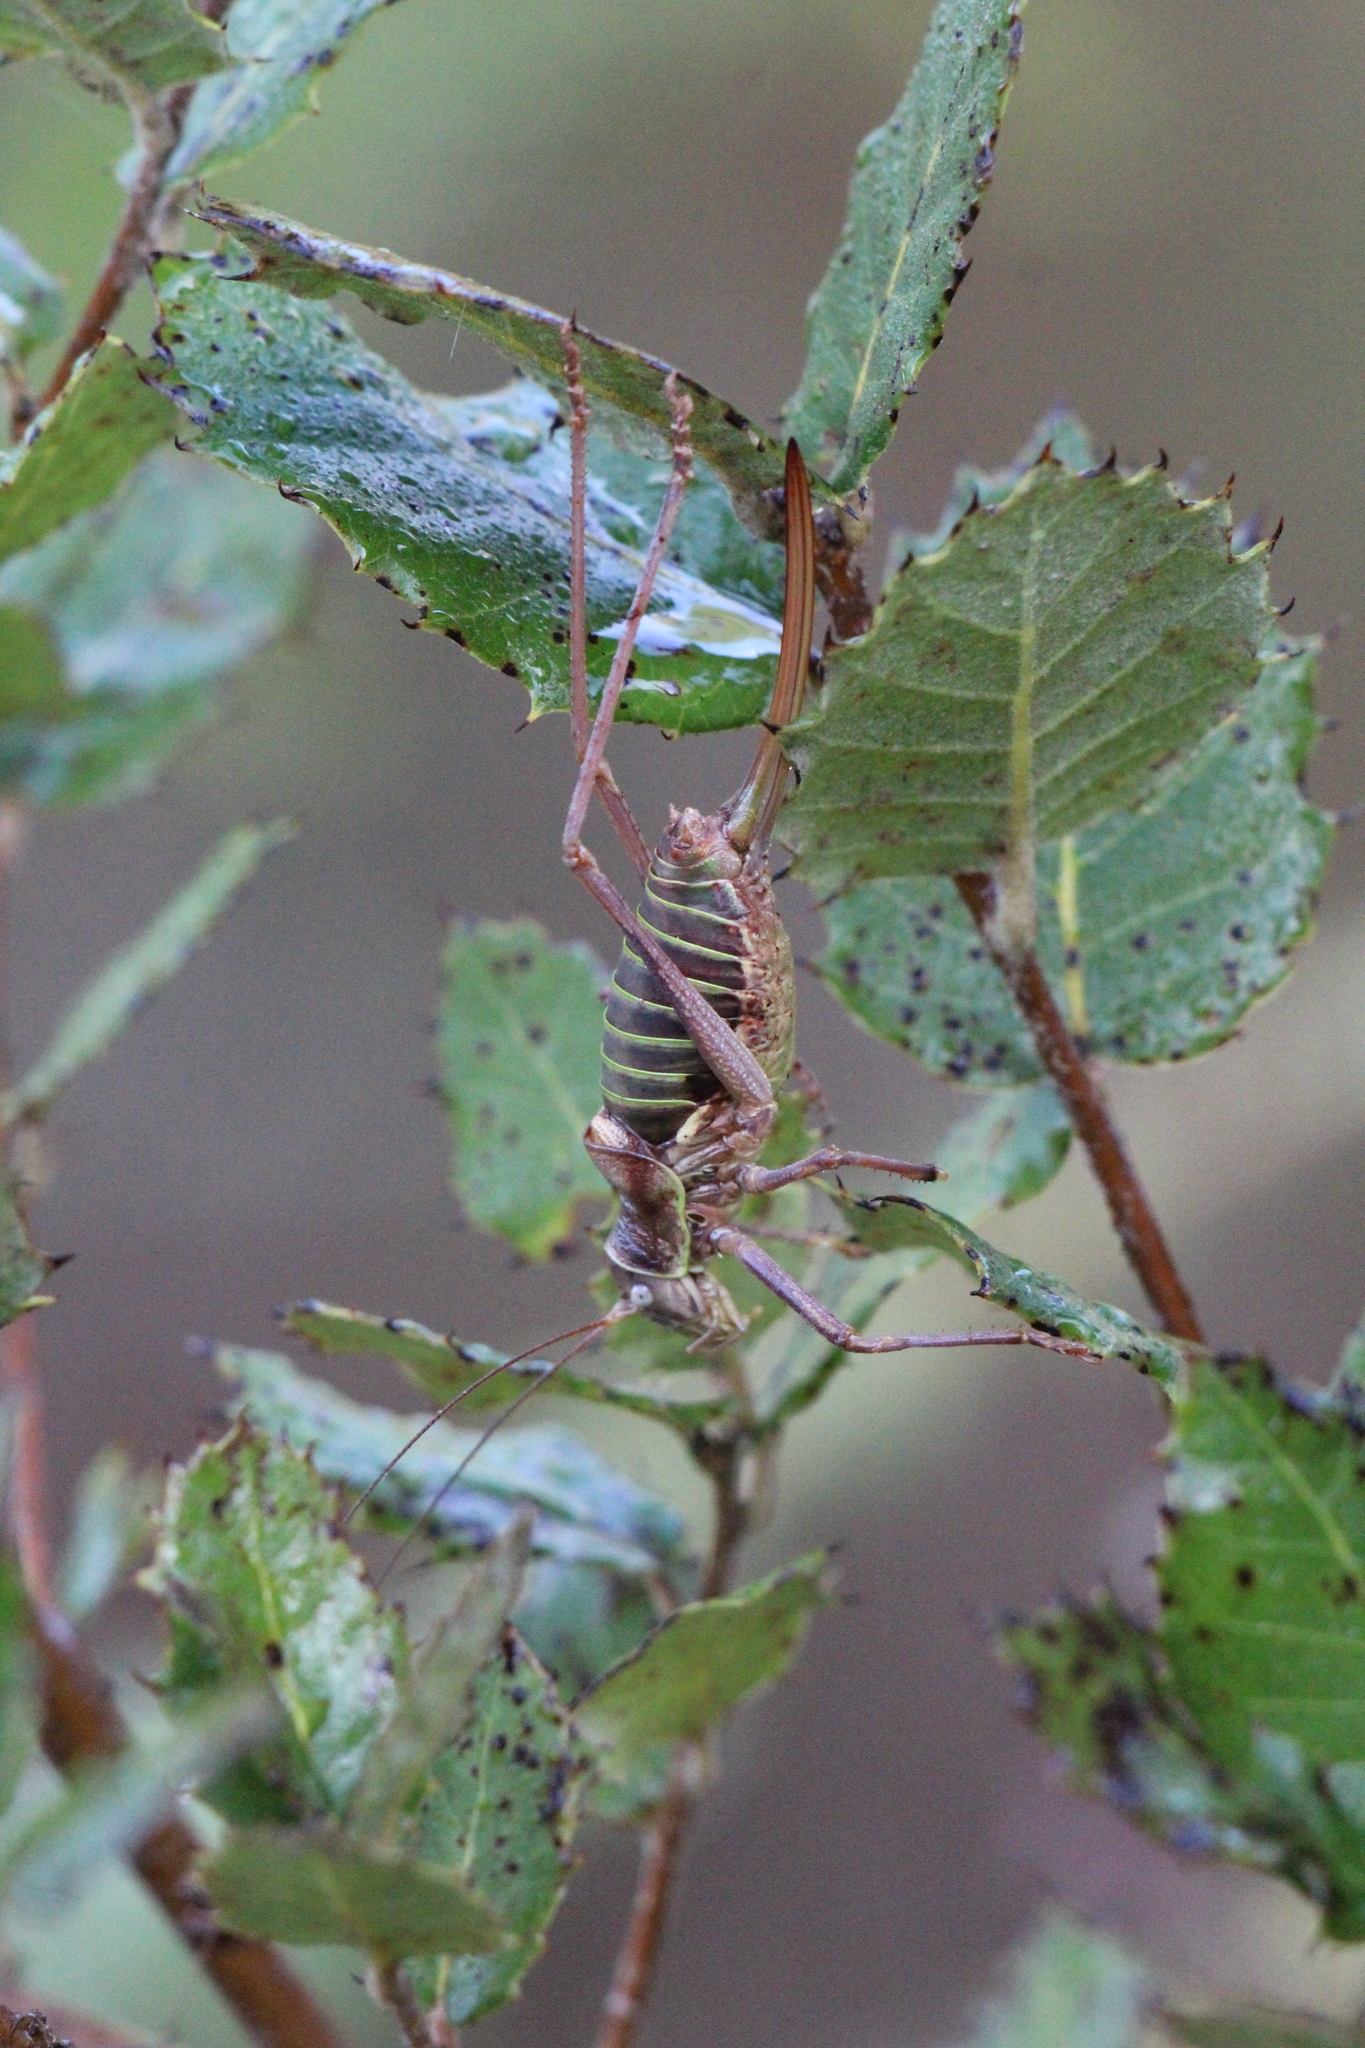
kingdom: Animalia
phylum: Arthropoda
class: Insecta
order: Orthoptera
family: Tettigoniidae
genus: Ephippiger
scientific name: Ephippiger diurnus
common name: Western saddle bush-cricket
